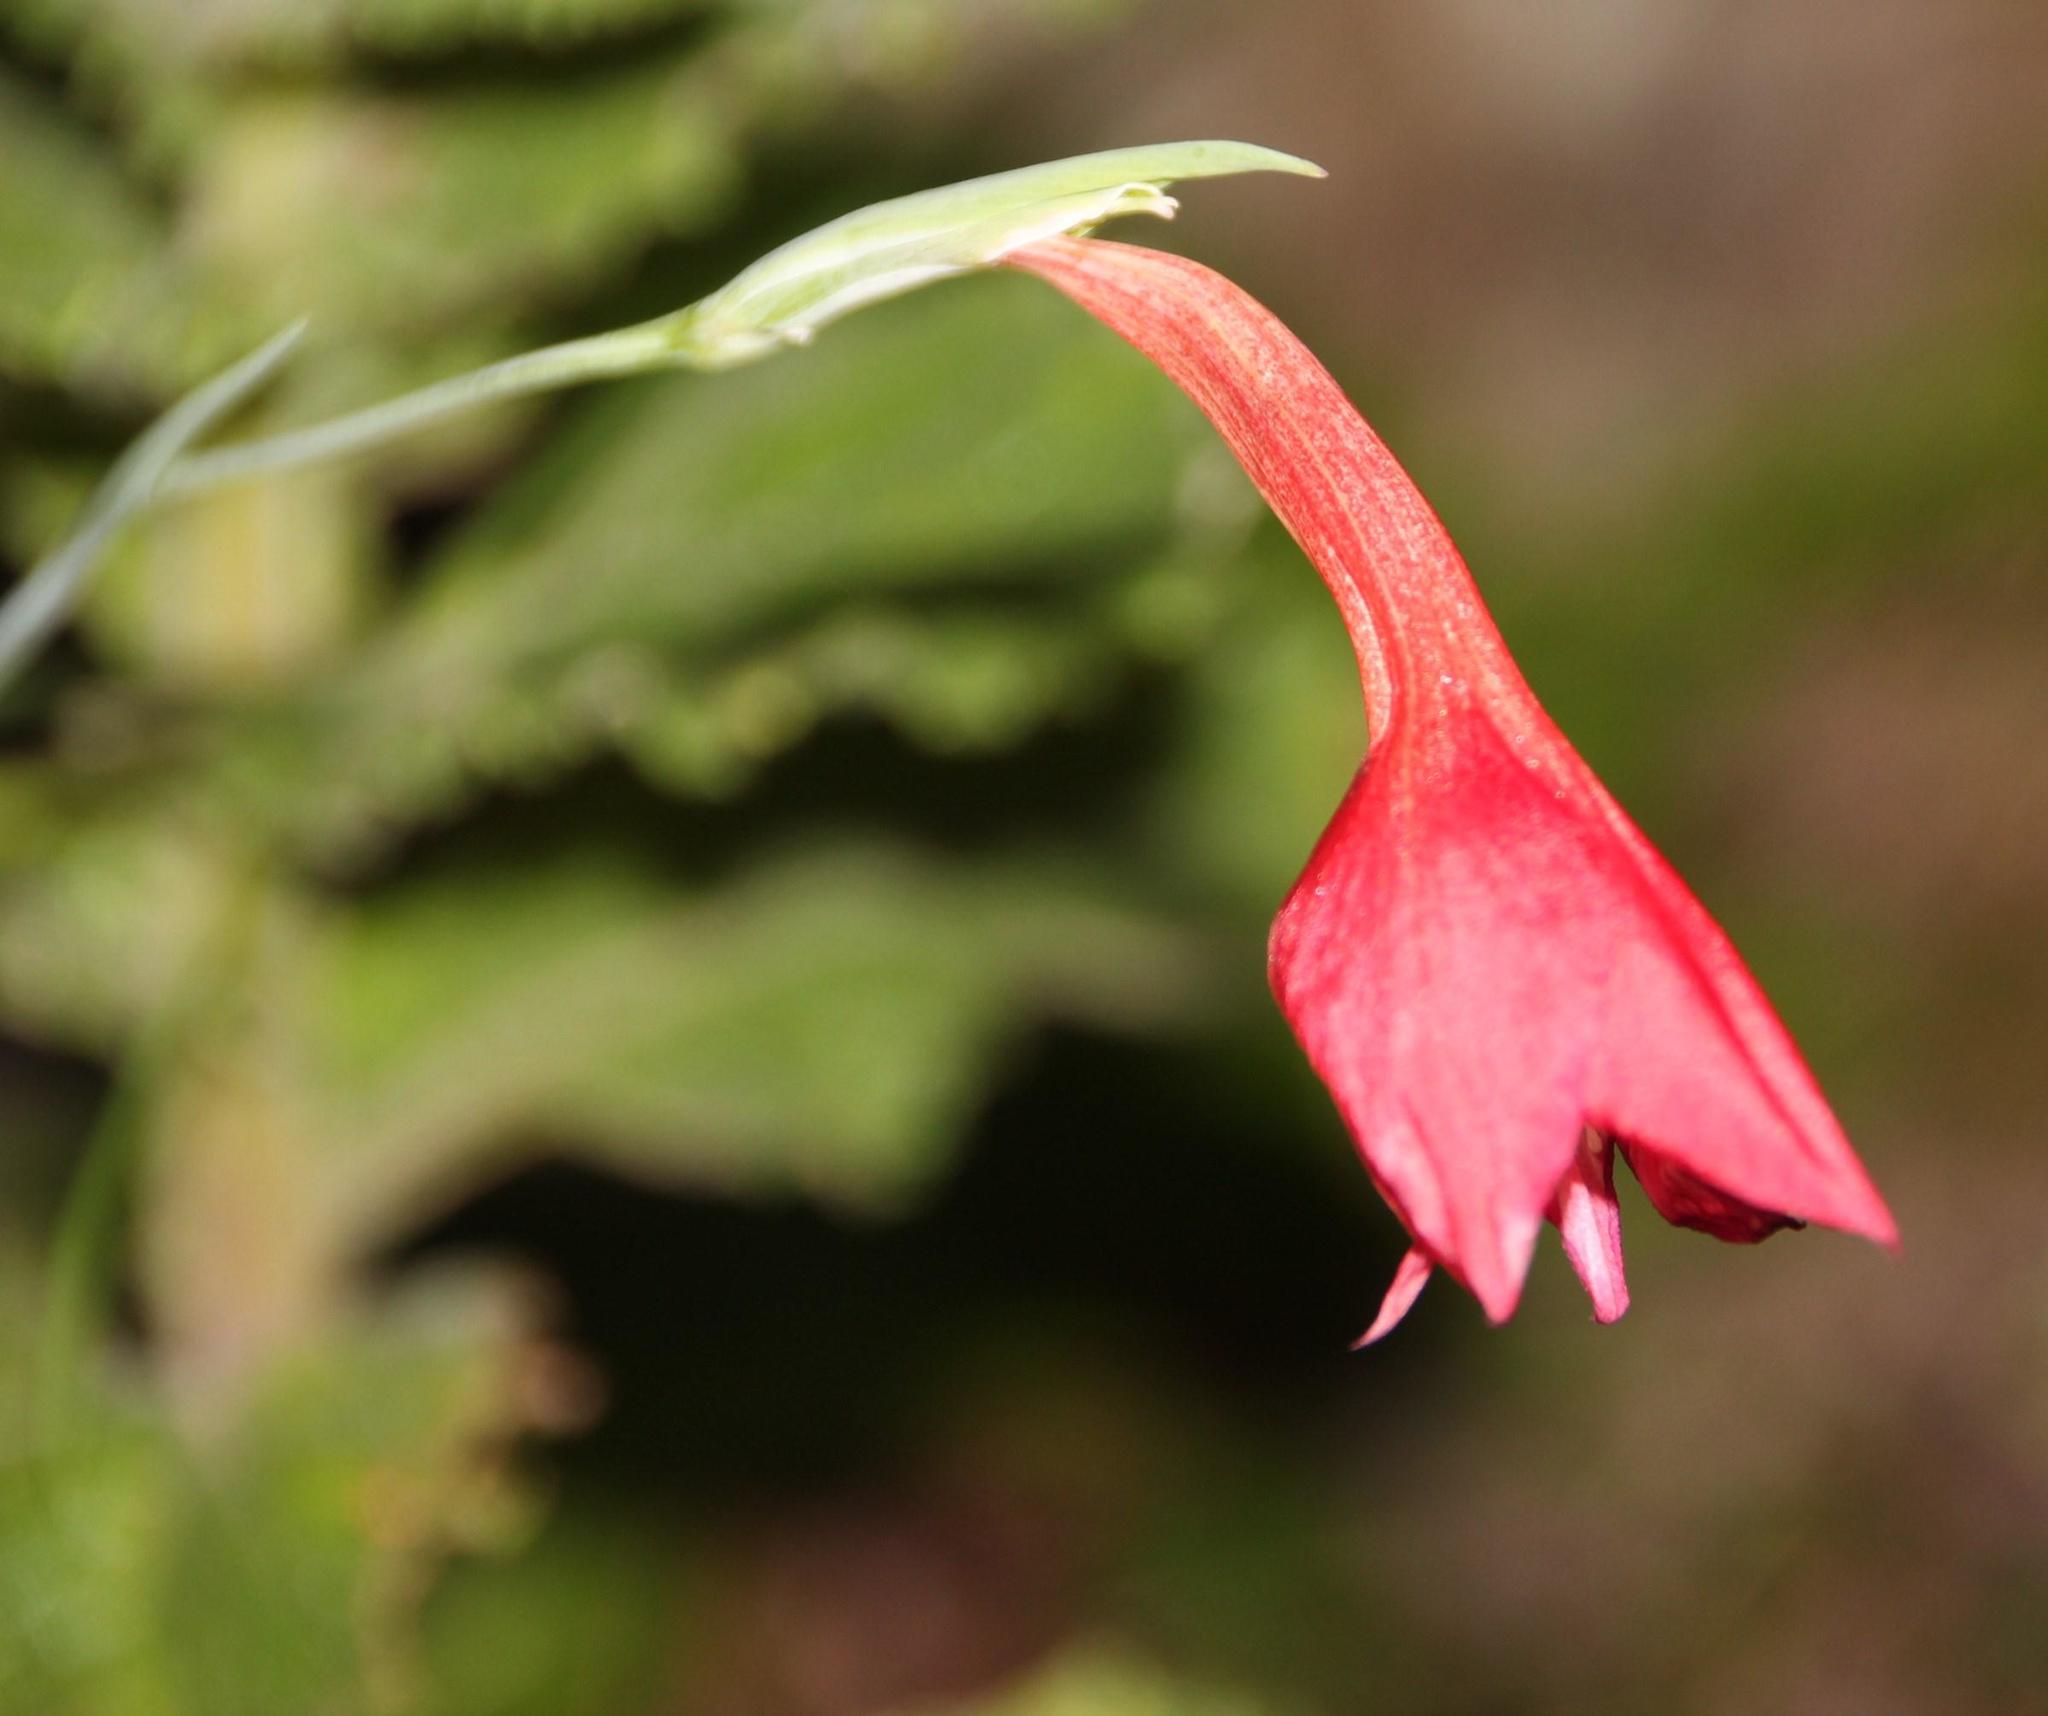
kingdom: Plantae
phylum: Tracheophyta
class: Liliopsida
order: Asparagales
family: Iridaceae
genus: Gladiolus
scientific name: Gladiolus priorii
